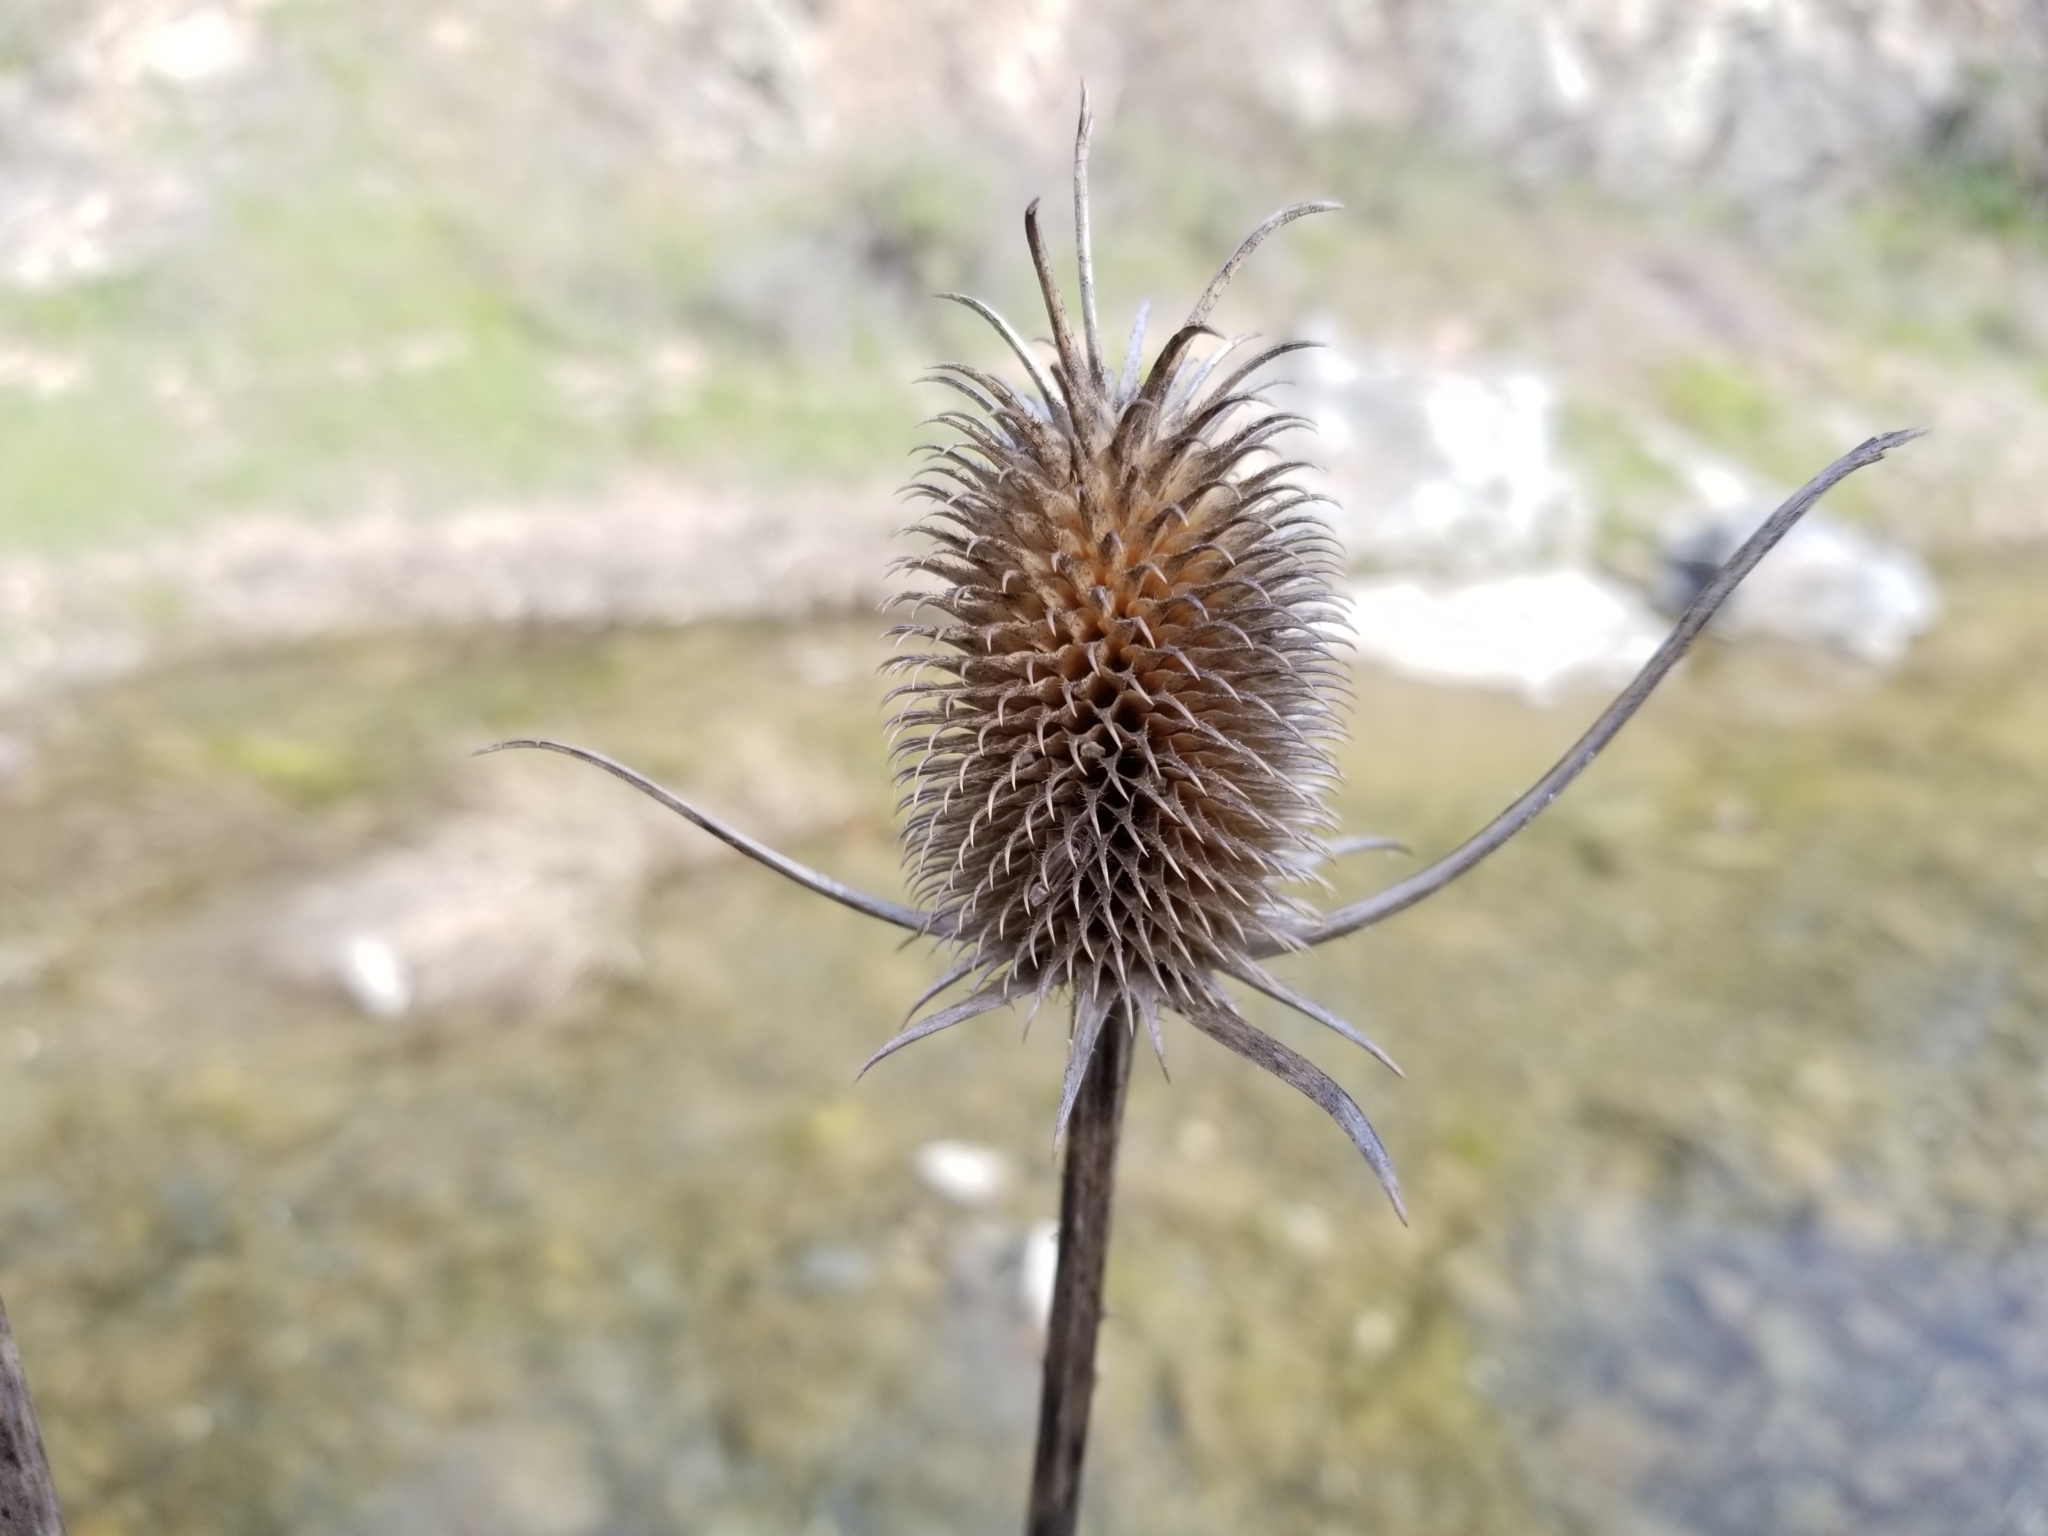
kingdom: Plantae
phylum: Tracheophyta
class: Magnoliopsida
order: Dipsacales
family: Caprifoliaceae
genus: Dipsacus
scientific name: Dipsacus sativus
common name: Fuller's teasel
